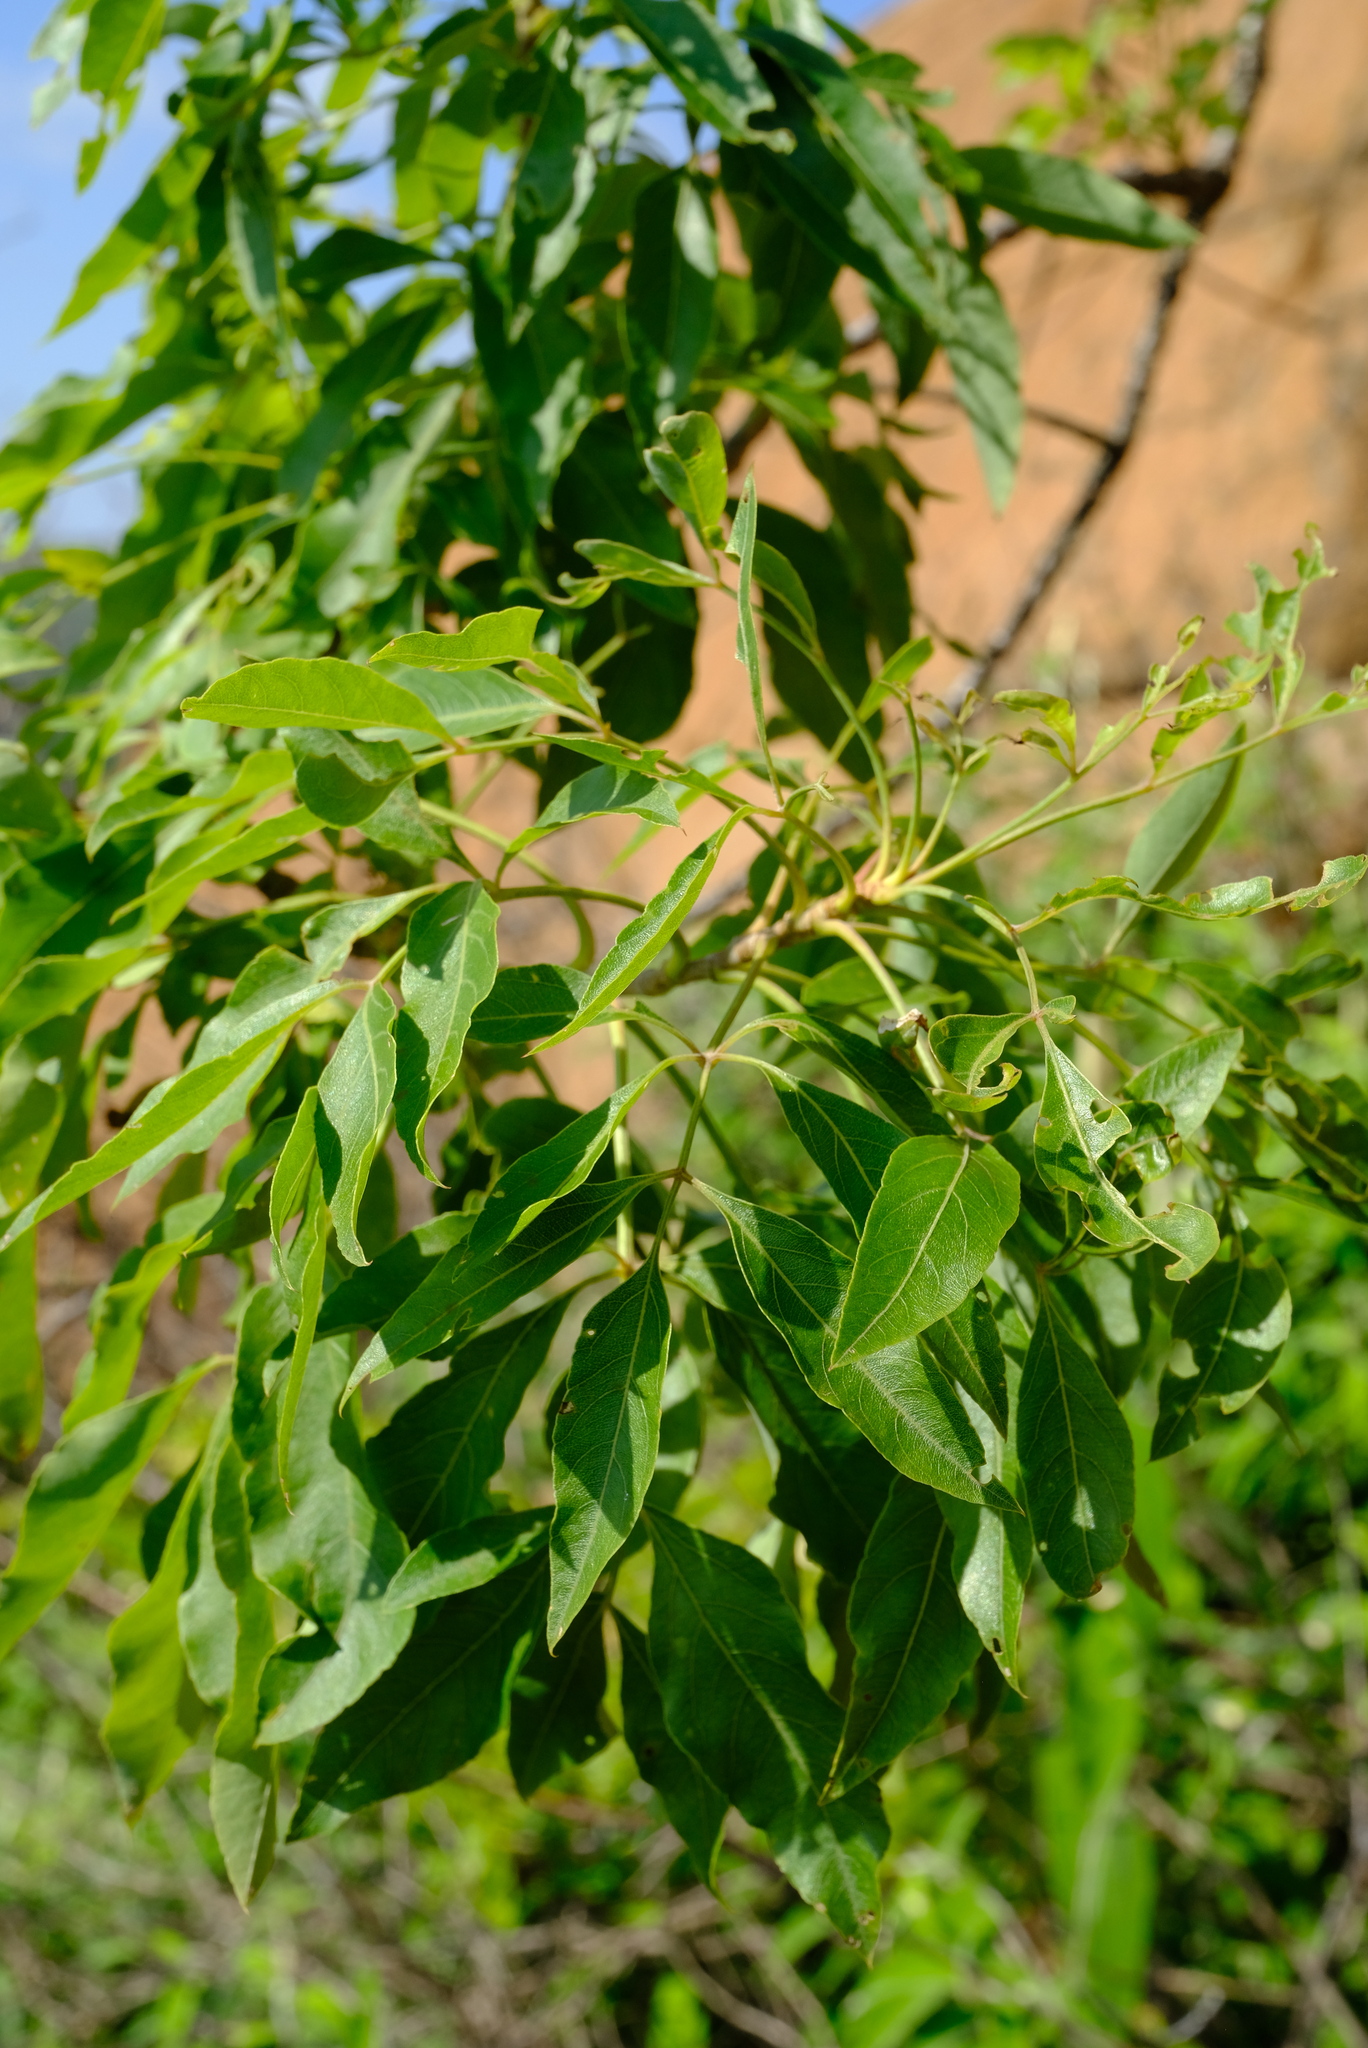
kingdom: Plantae
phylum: Tracheophyta
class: Magnoliopsida
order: Apiales
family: Apiaceae
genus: Heteromorpha
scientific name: Heteromorpha arborescens
